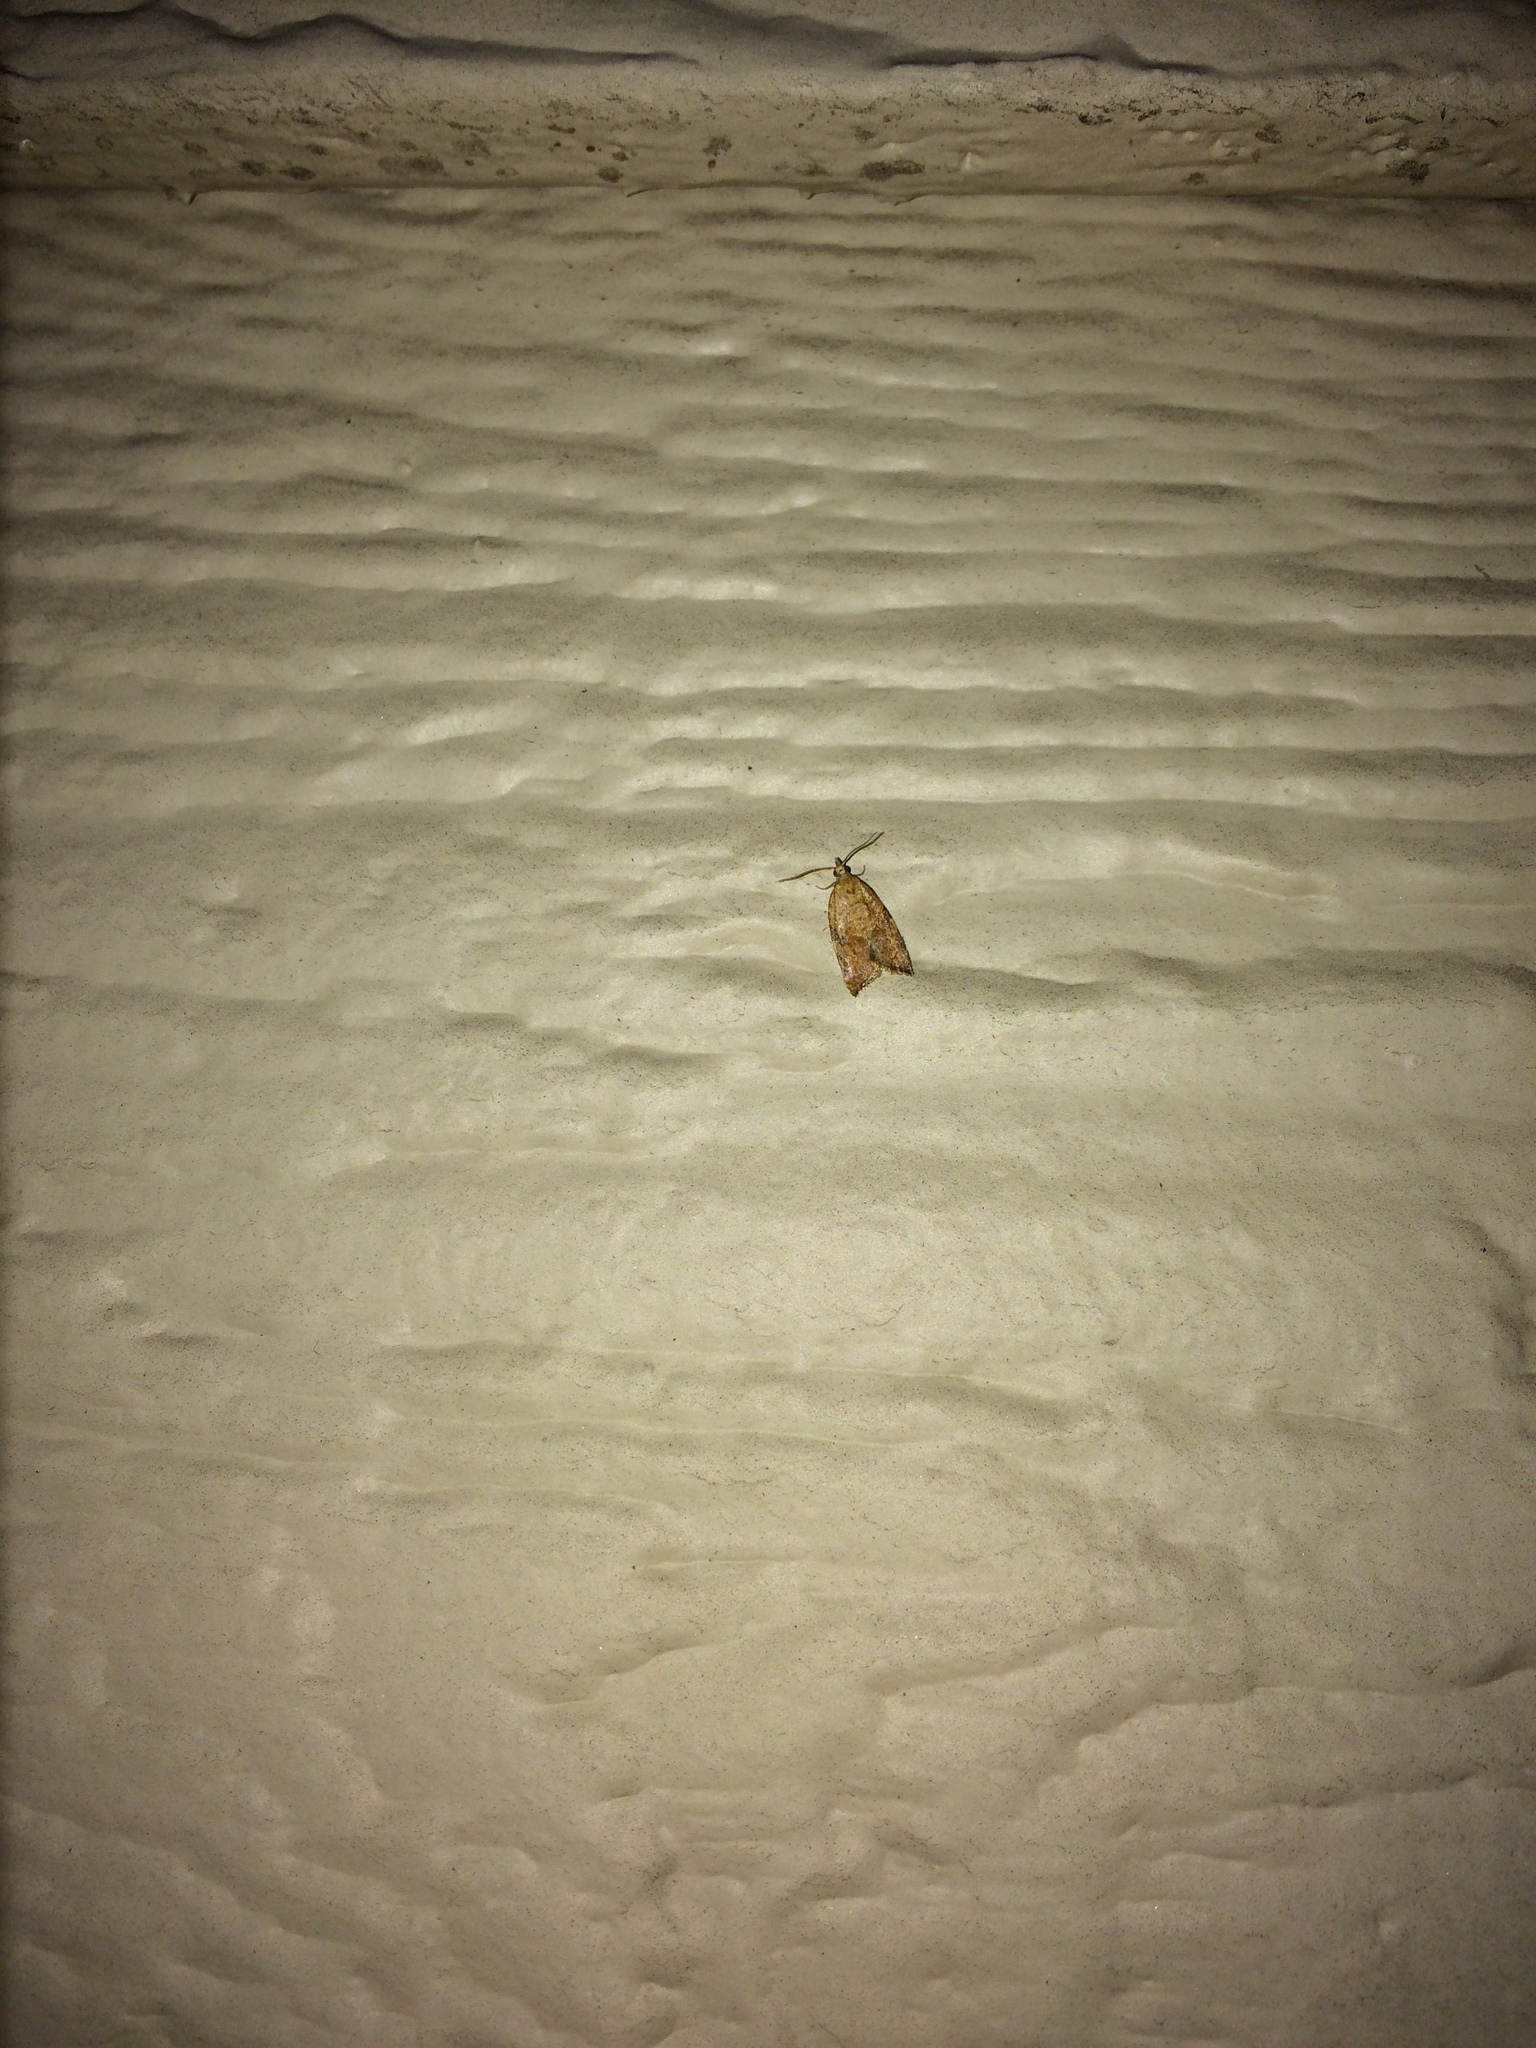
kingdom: Animalia
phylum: Arthropoda
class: Insecta
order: Lepidoptera
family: Tortricidae
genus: Argyrotaenia
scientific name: Argyrotaenia franciscana
